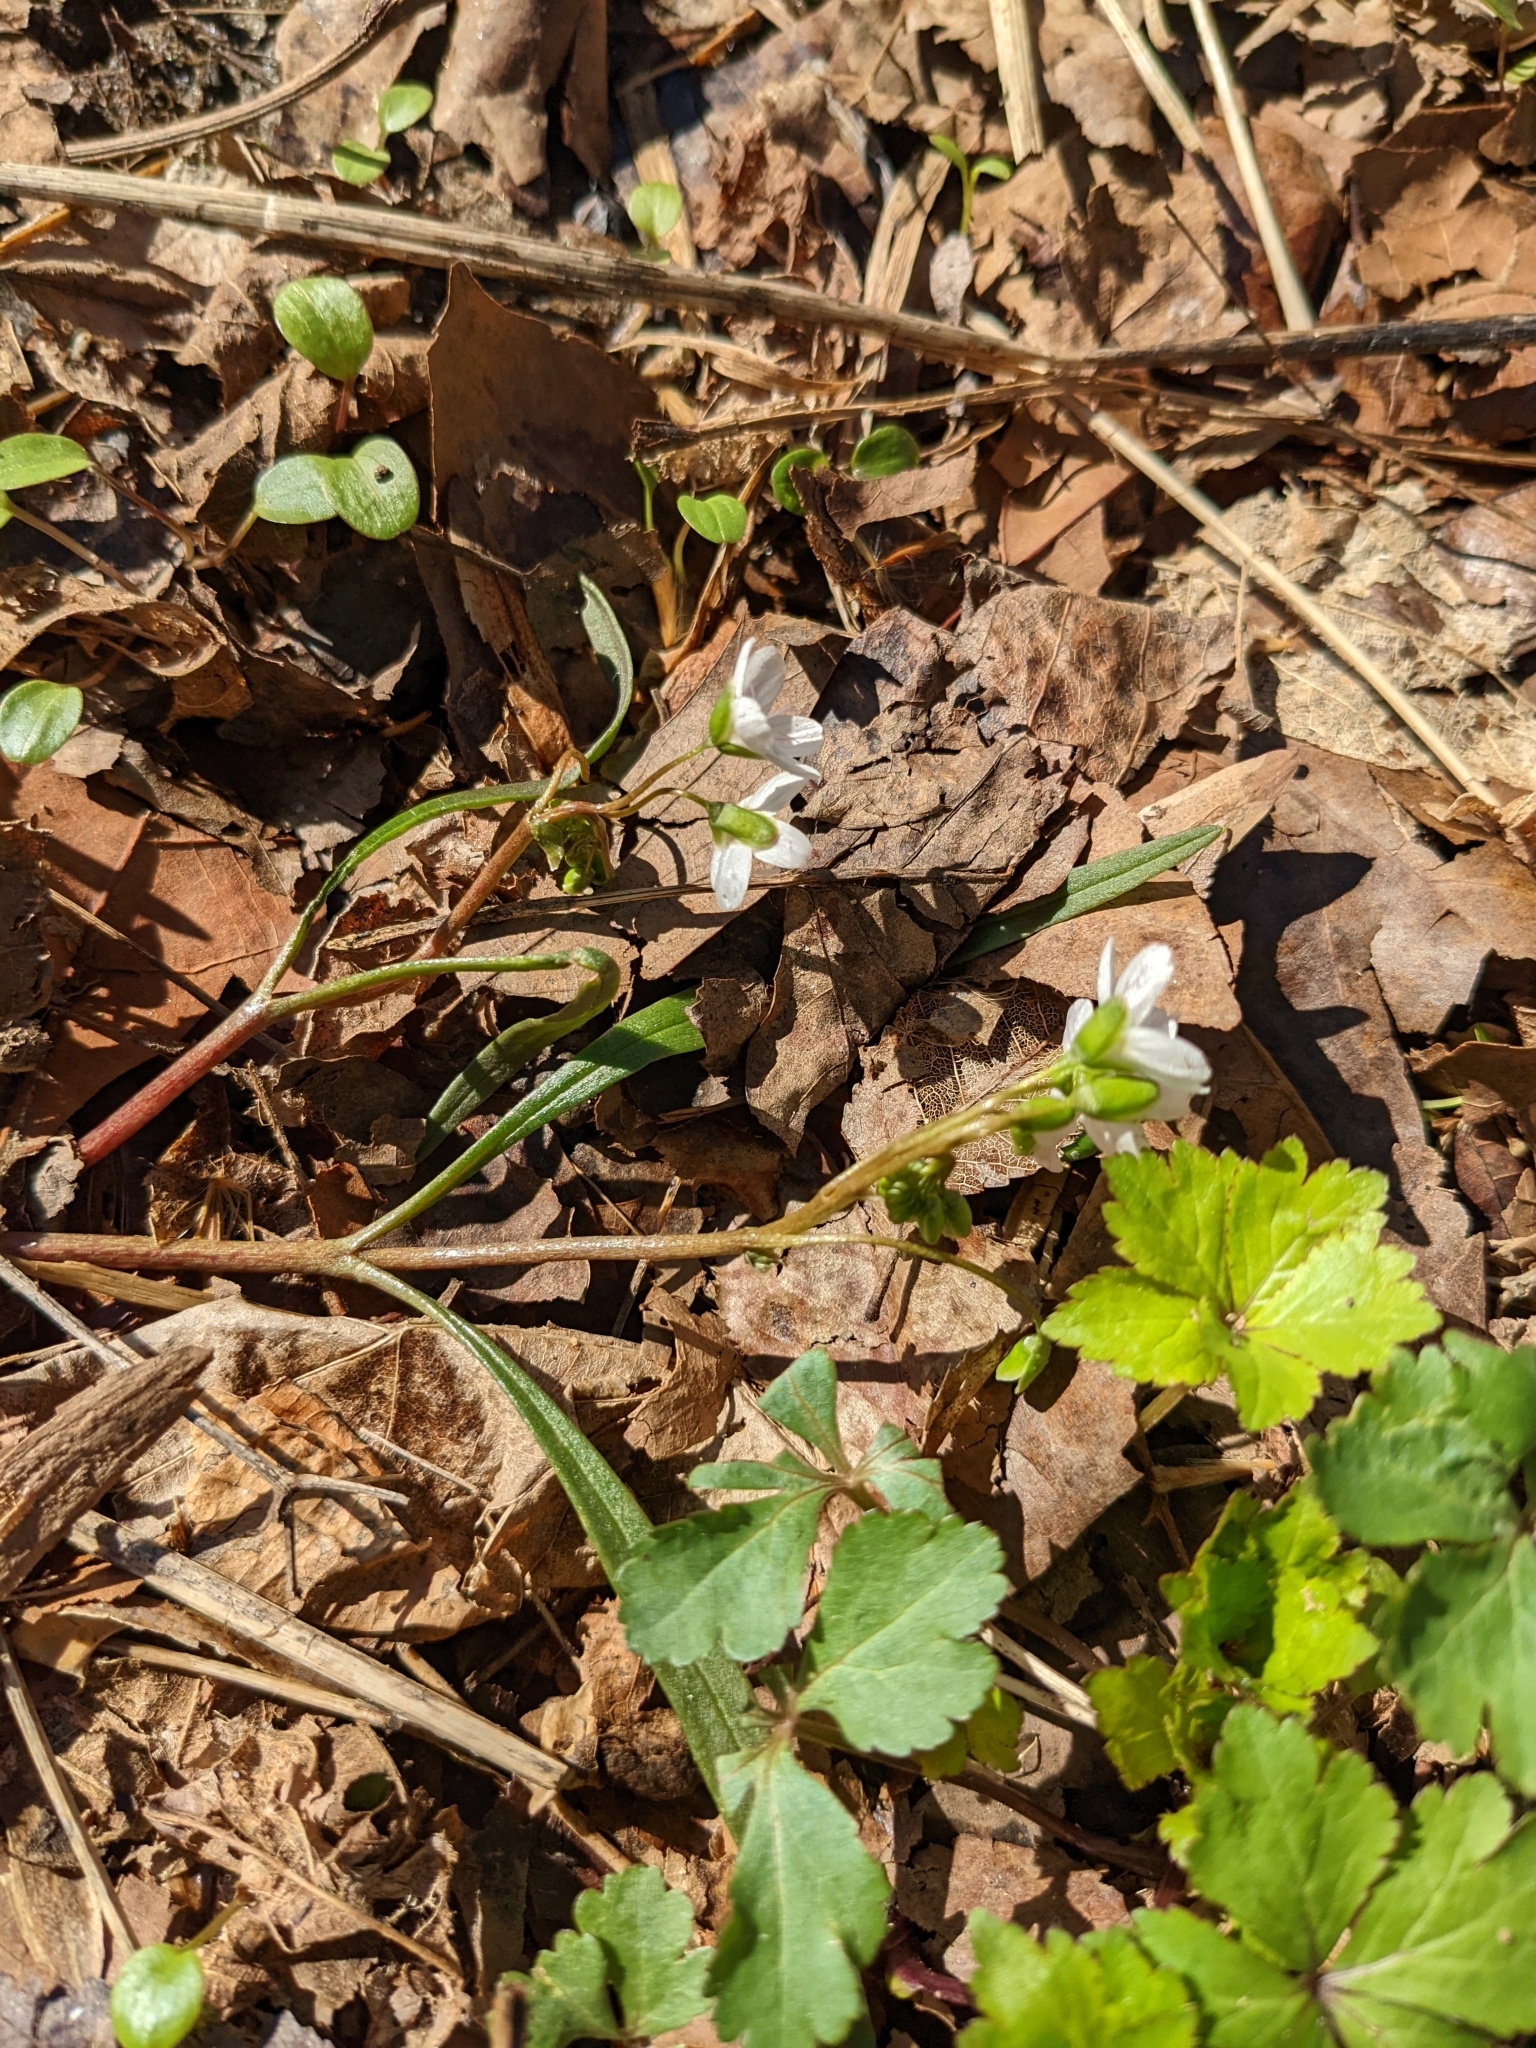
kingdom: Plantae
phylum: Tracheophyta
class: Magnoliopsida
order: Caryophyllales
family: Montiaceae
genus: Claytonia
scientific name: Claytonia virginica
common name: Virginia springbeauty
